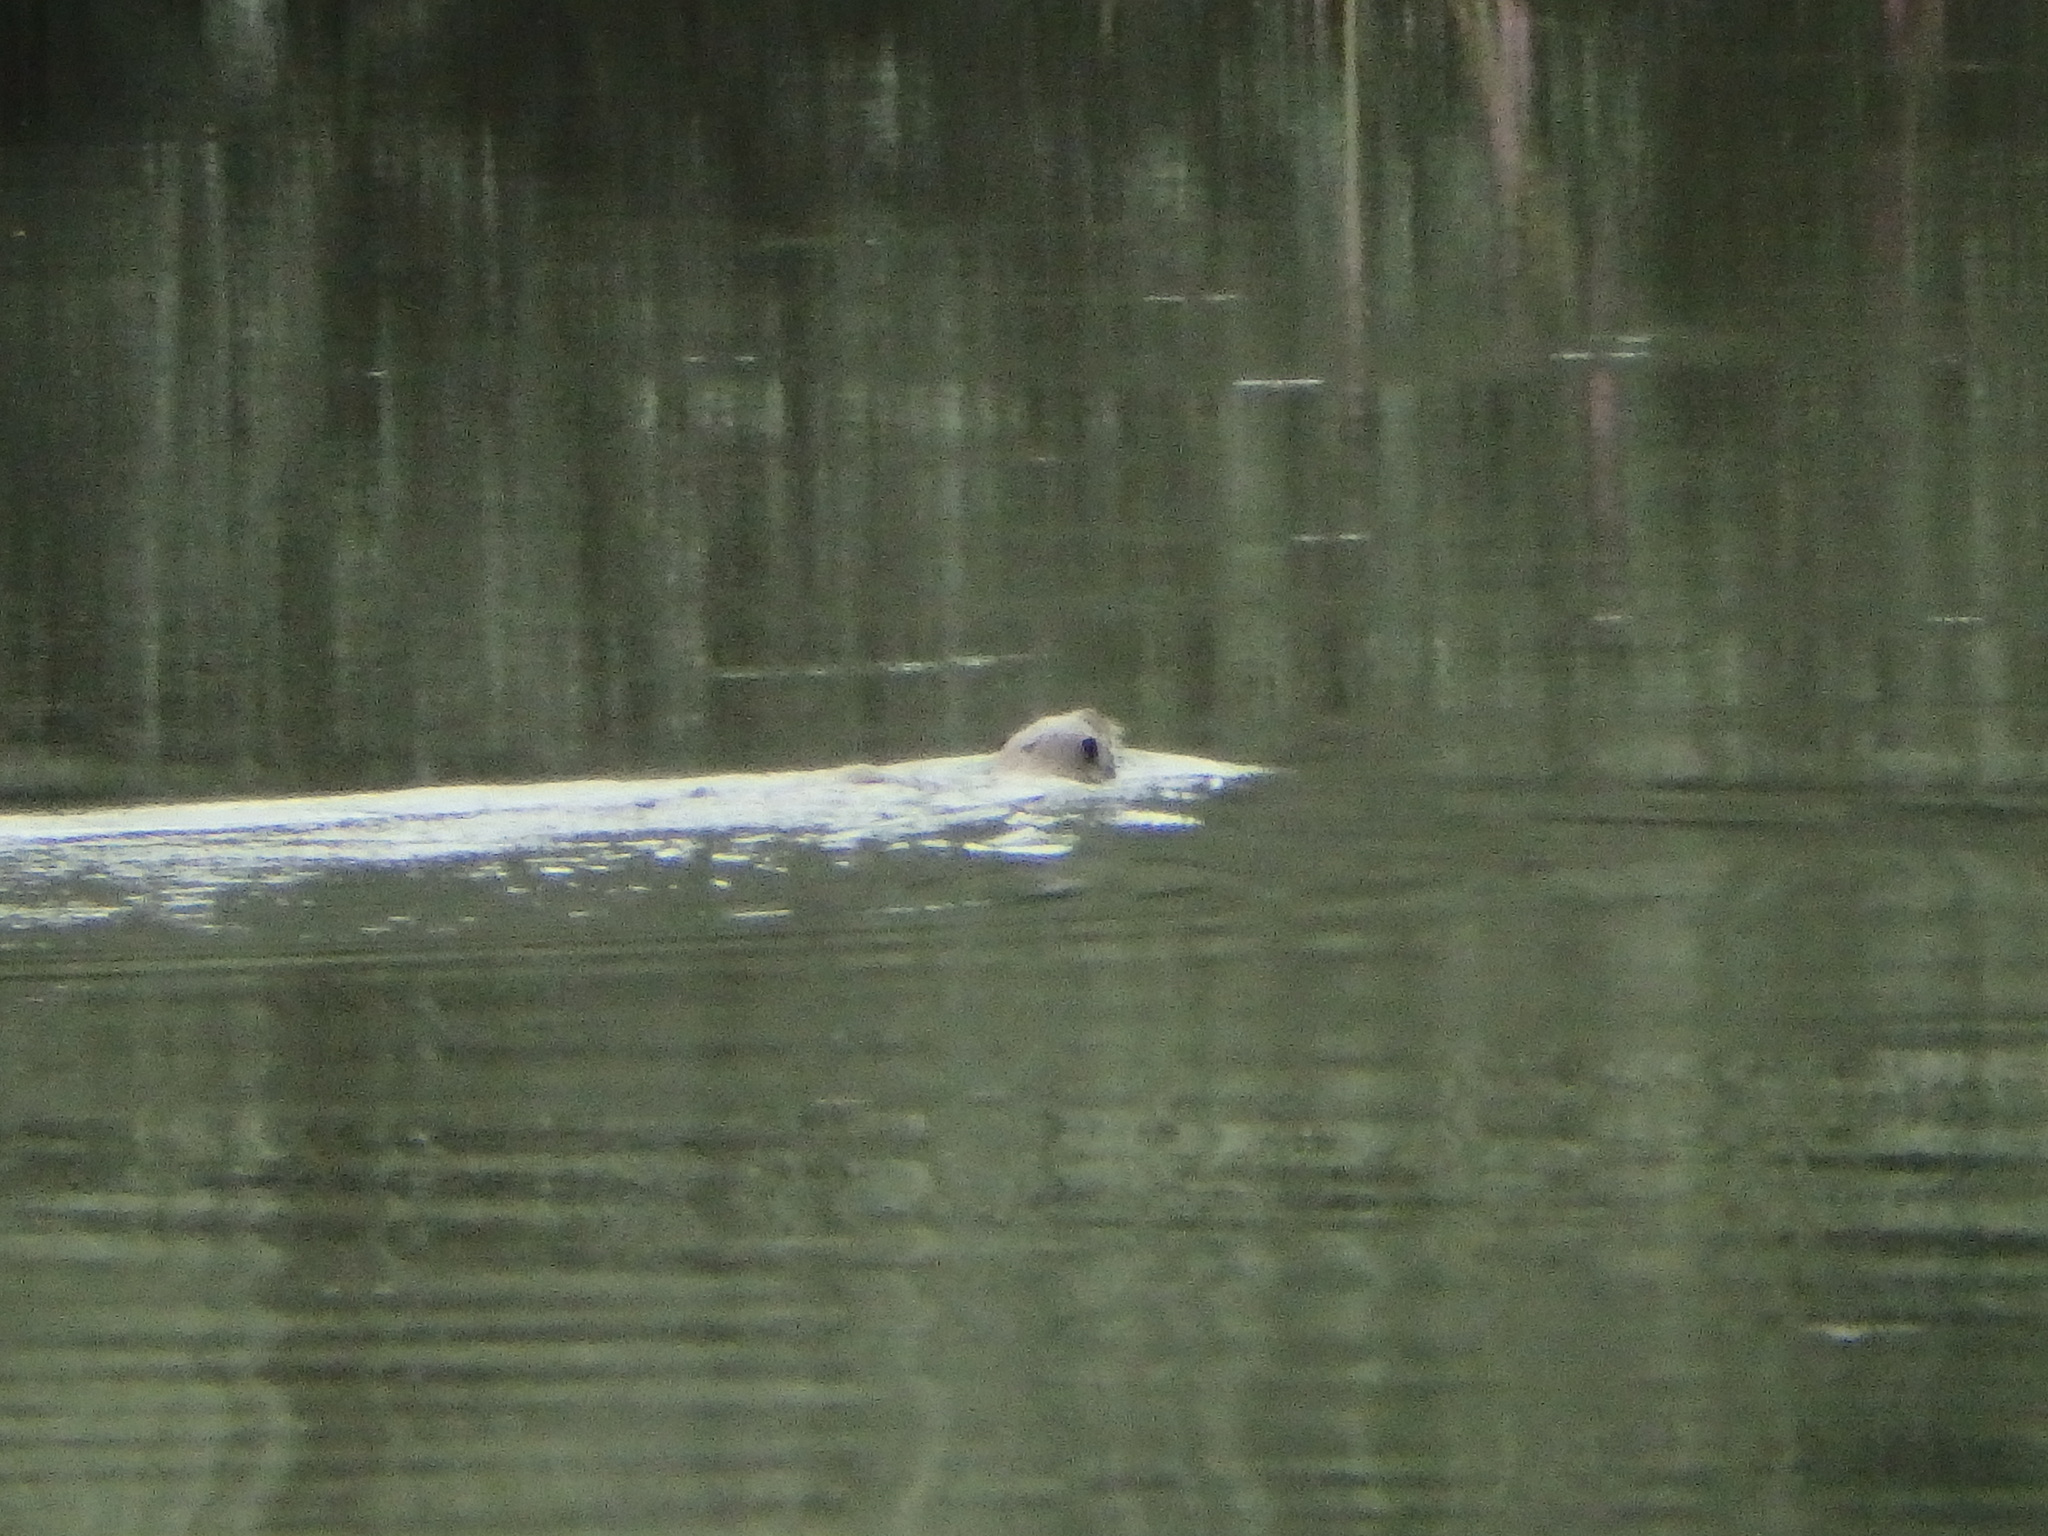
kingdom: Animalia
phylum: Chordata
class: Mammalia
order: Carnivora
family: Mustelidae
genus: Lutra
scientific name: Lutra lutra
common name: European otter
